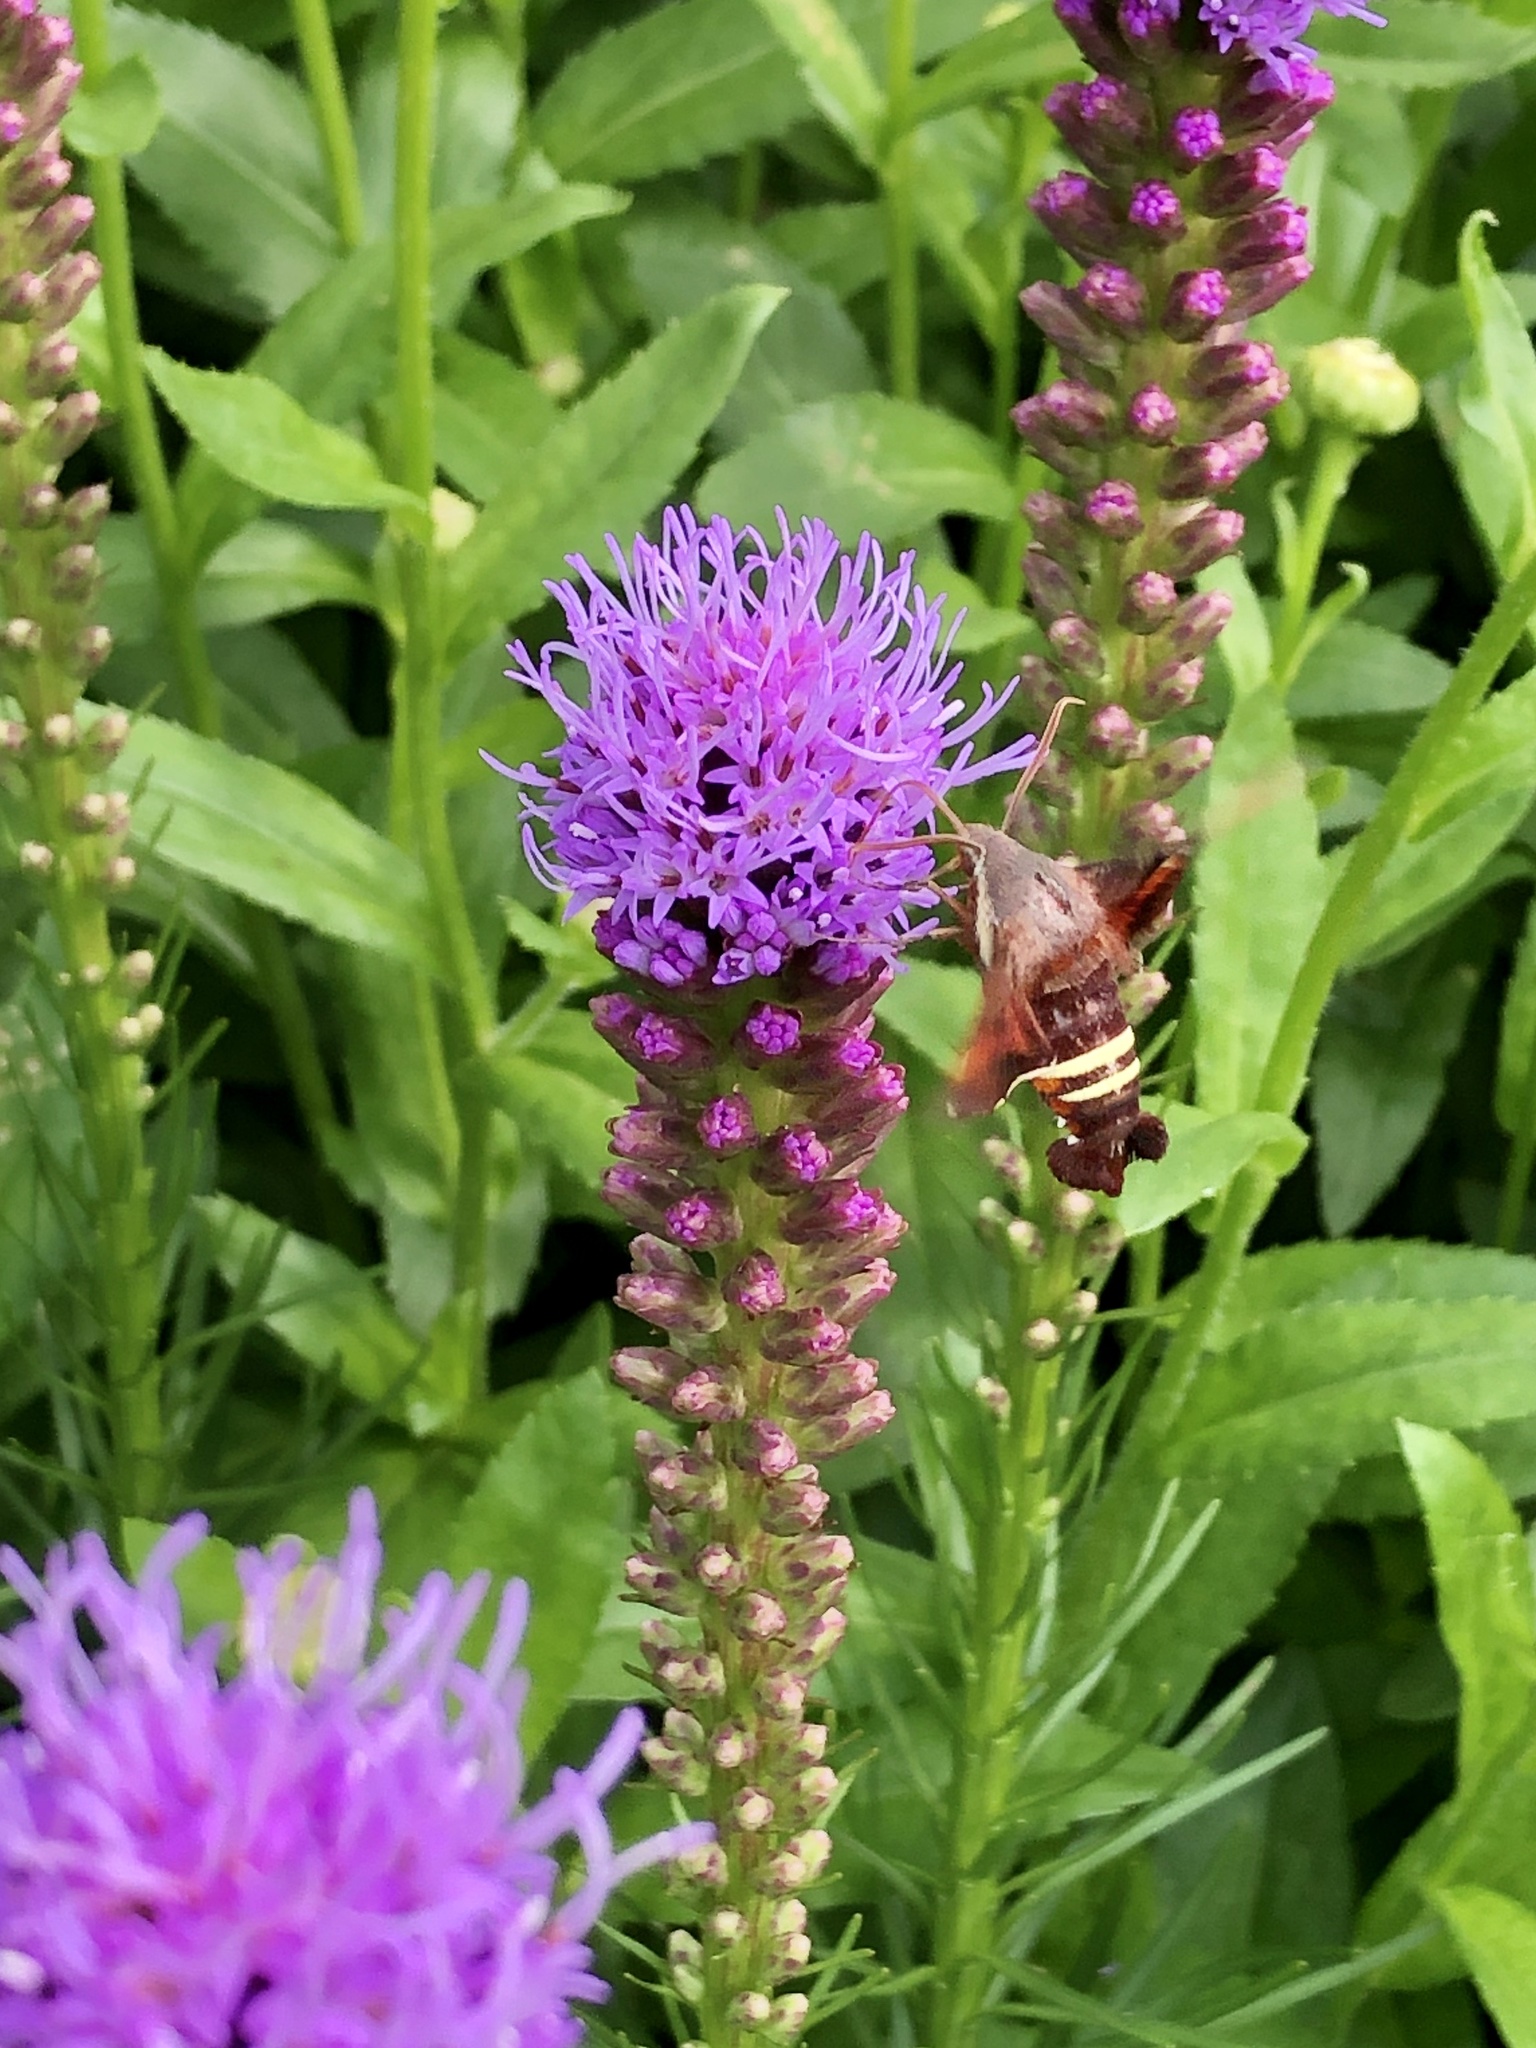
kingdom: Animalia
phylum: Arthropoda
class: Insecta
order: Lepidoptera
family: Sphingidae
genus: Amphion
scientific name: Amphion floridensis
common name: Nessus sphinx
